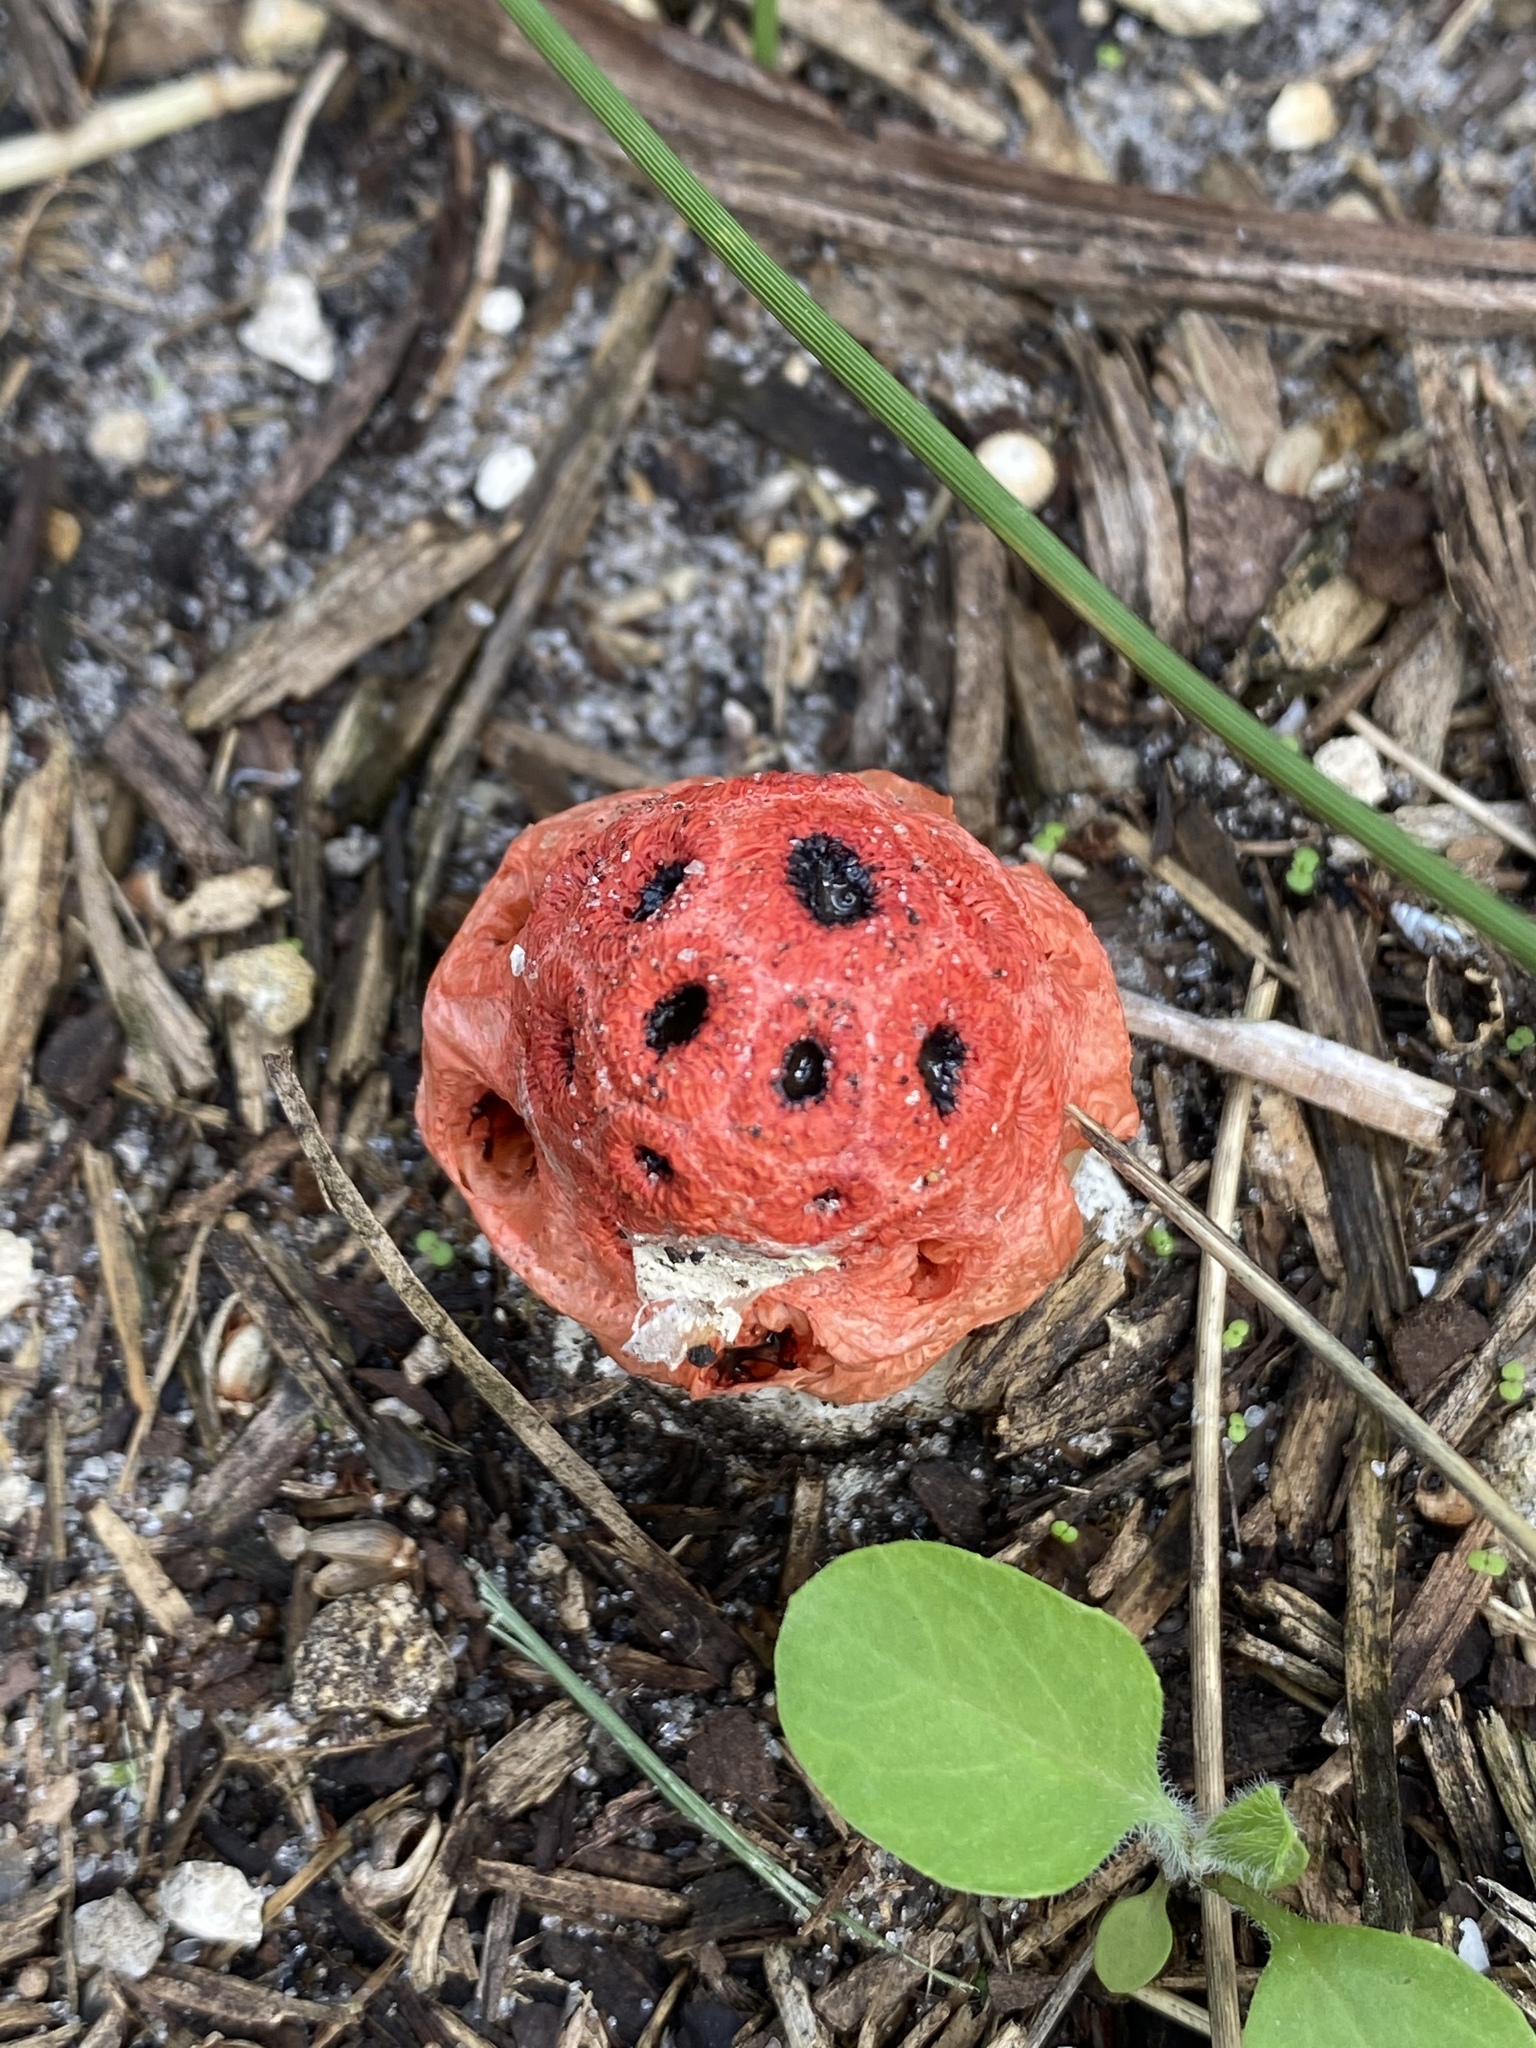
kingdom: Fungi
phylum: Basidiomycota
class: Agaricomycetes
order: Phallales
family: Phallaceae
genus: Clathrus
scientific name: Clathrus crispatus
